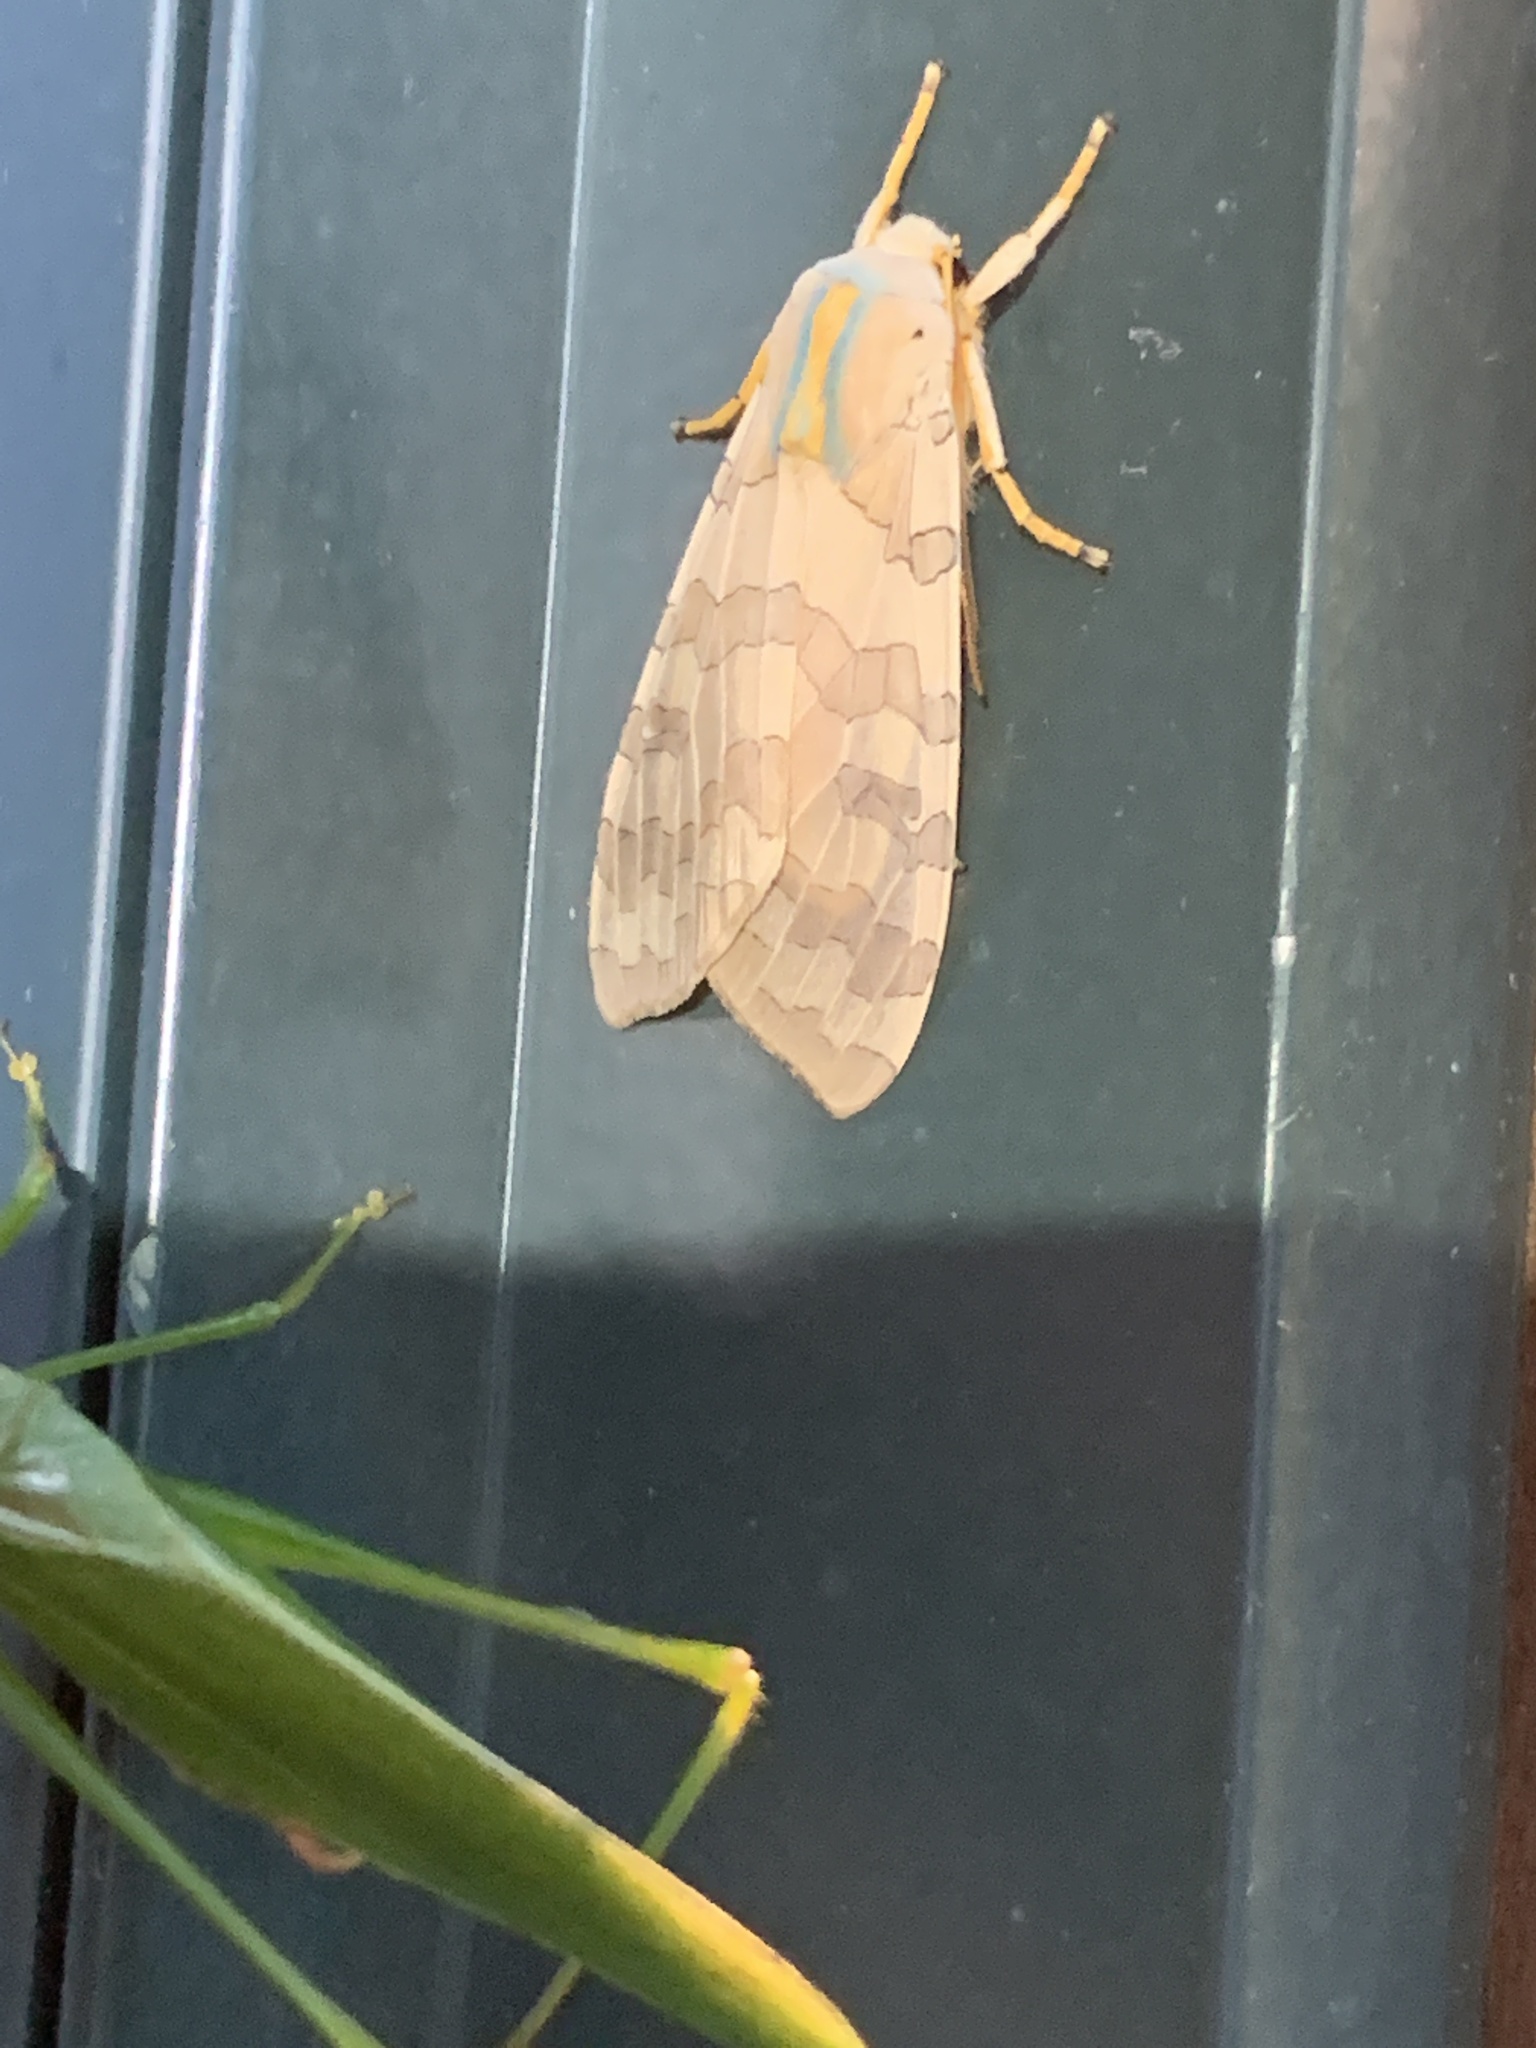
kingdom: Animalia
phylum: Arthropoda
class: Insecta
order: Lepidoptera
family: Erebidae
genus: Halysidota
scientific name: Halysidota
